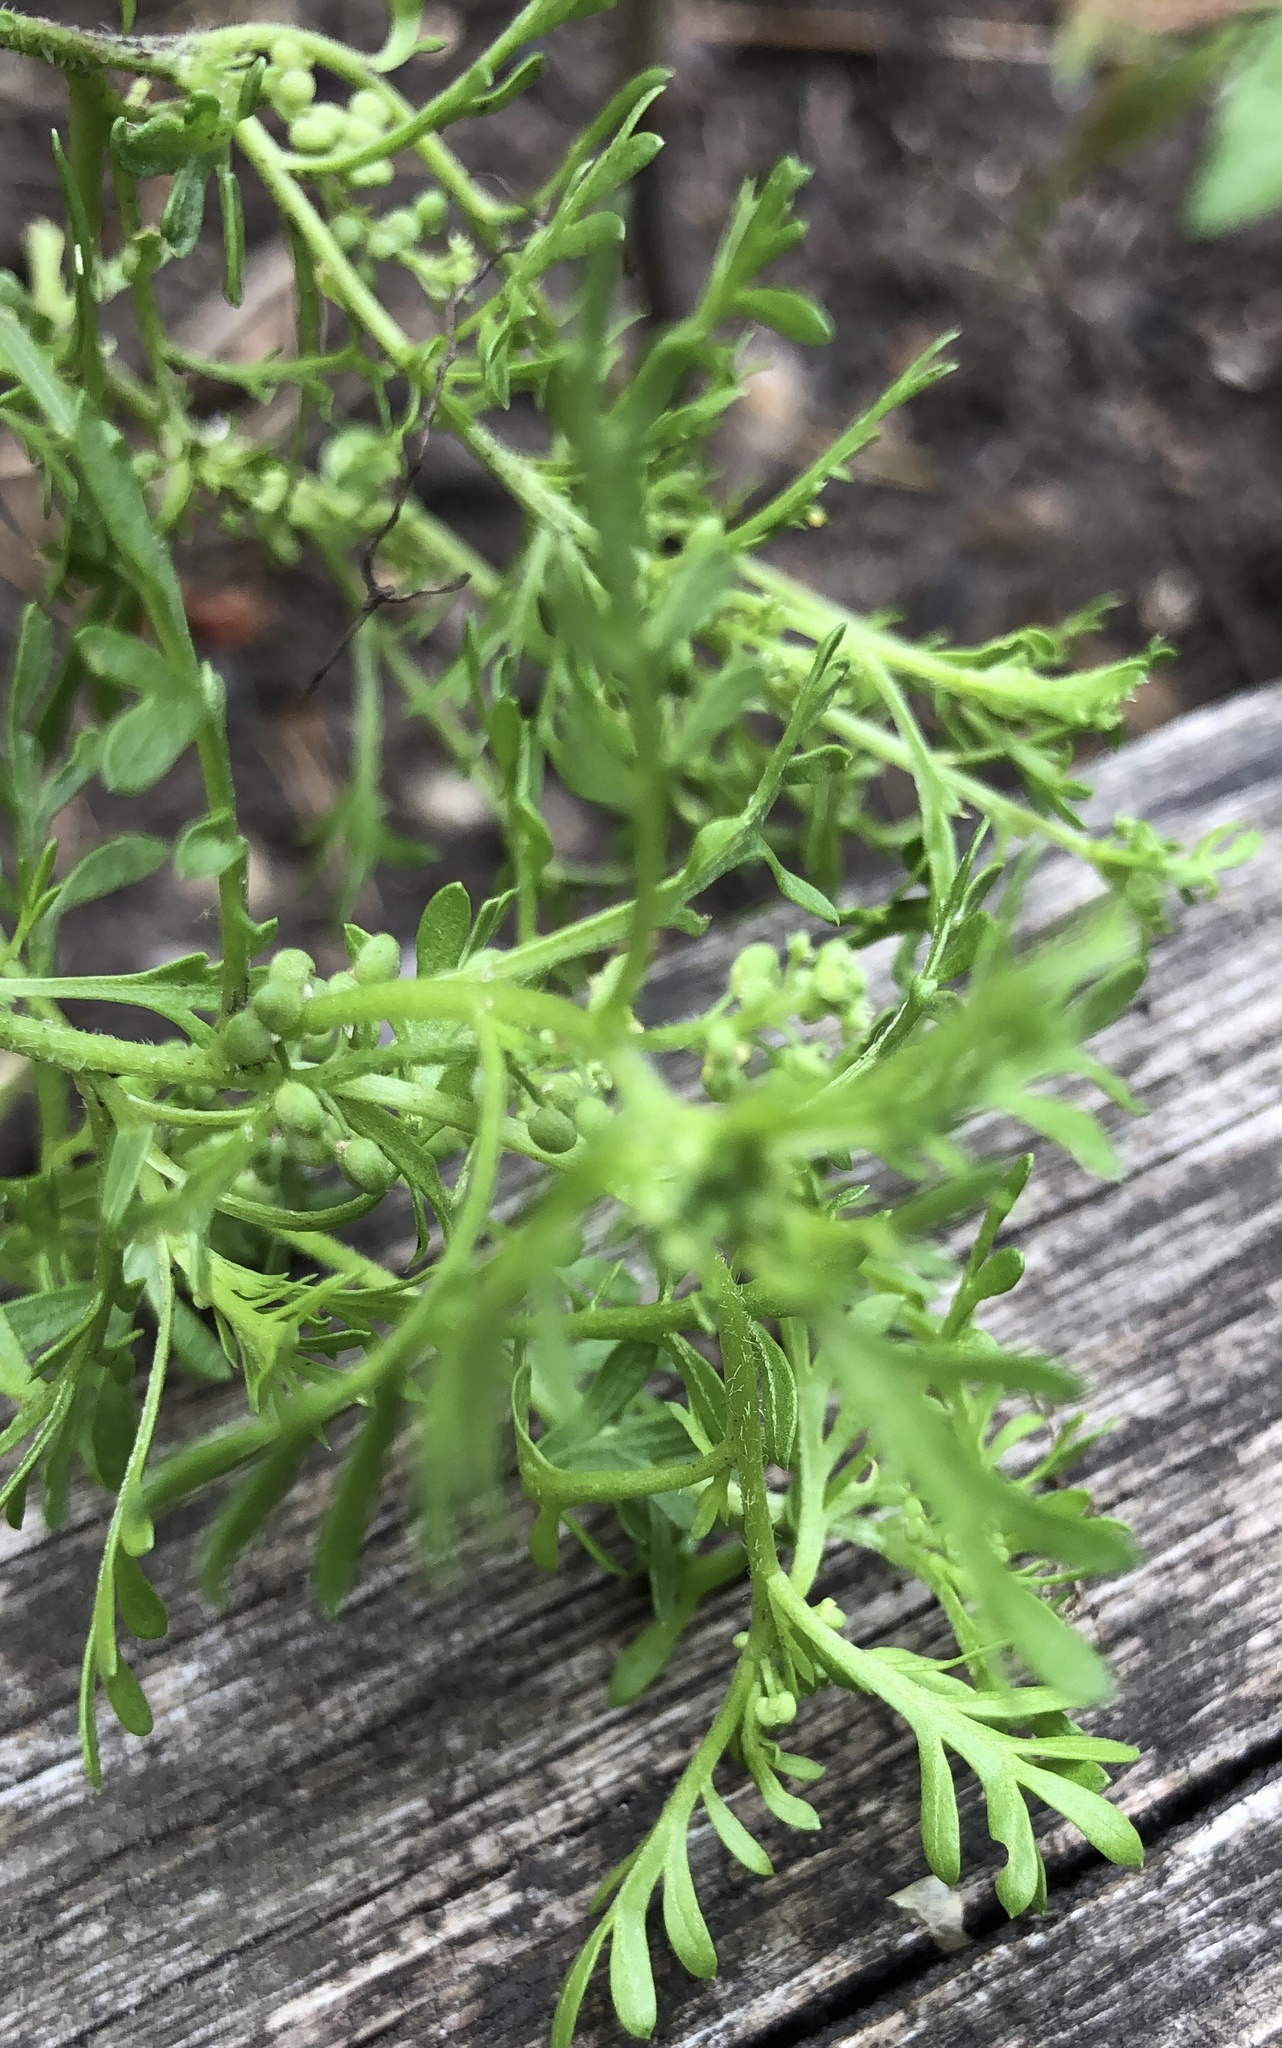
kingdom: Plantae
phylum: Tracheophyta
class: Magnoliopsida
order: Brassicales
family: Brassicaceae
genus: Lepidium
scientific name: Lepidium didymum
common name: Lesser swinecress
